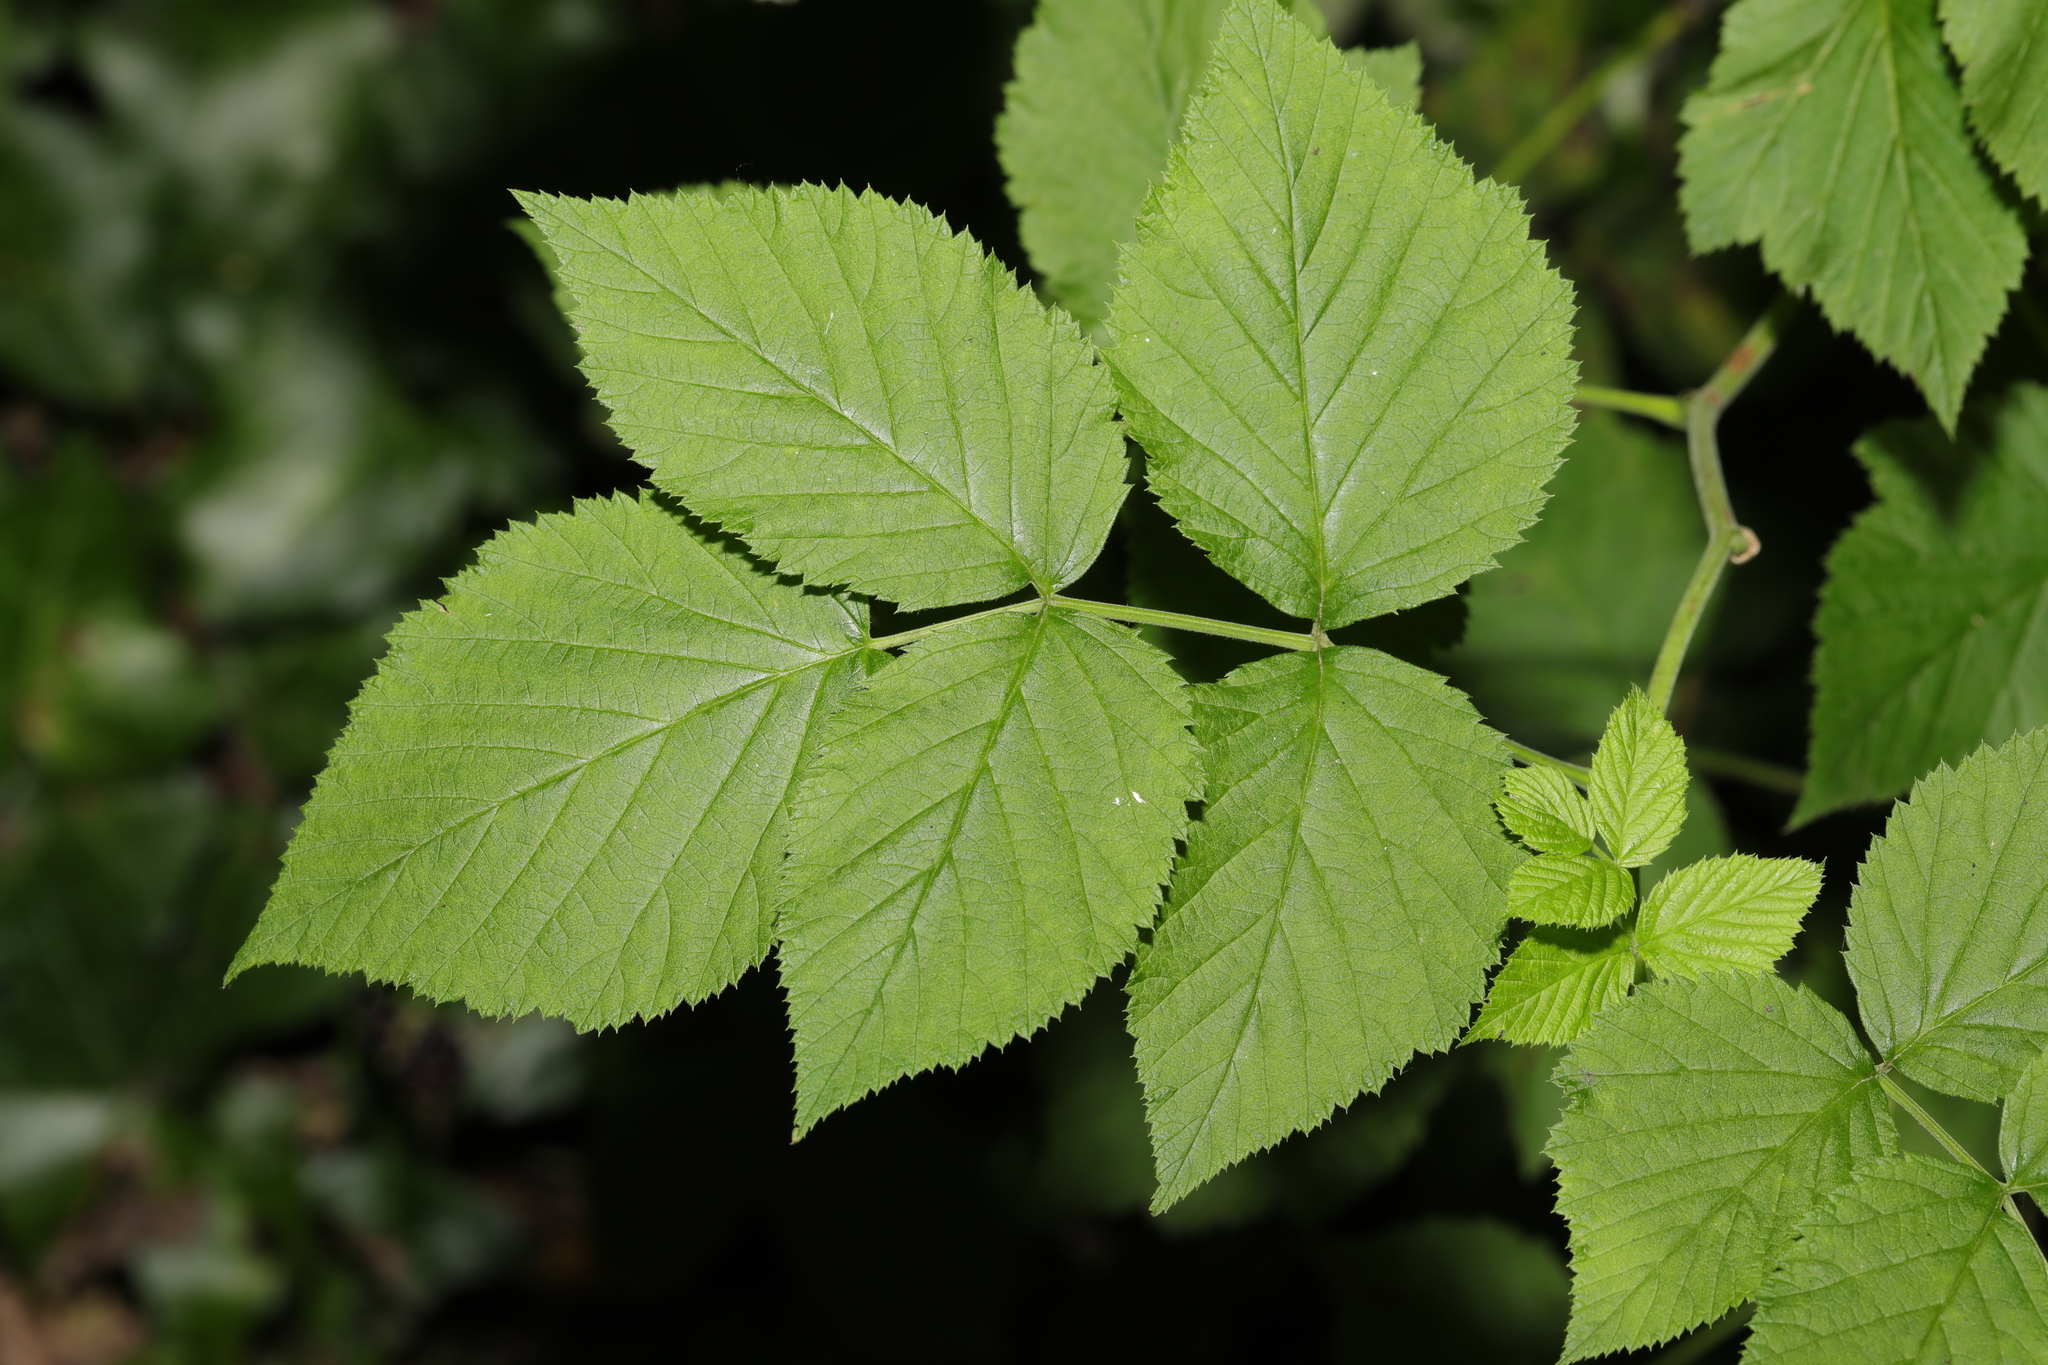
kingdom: Plantae
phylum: Tracheophyta
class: Magnoliopsida
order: Rosales
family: Rosaceae
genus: Rubus
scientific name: Rubus idaeus
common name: Raspberry
